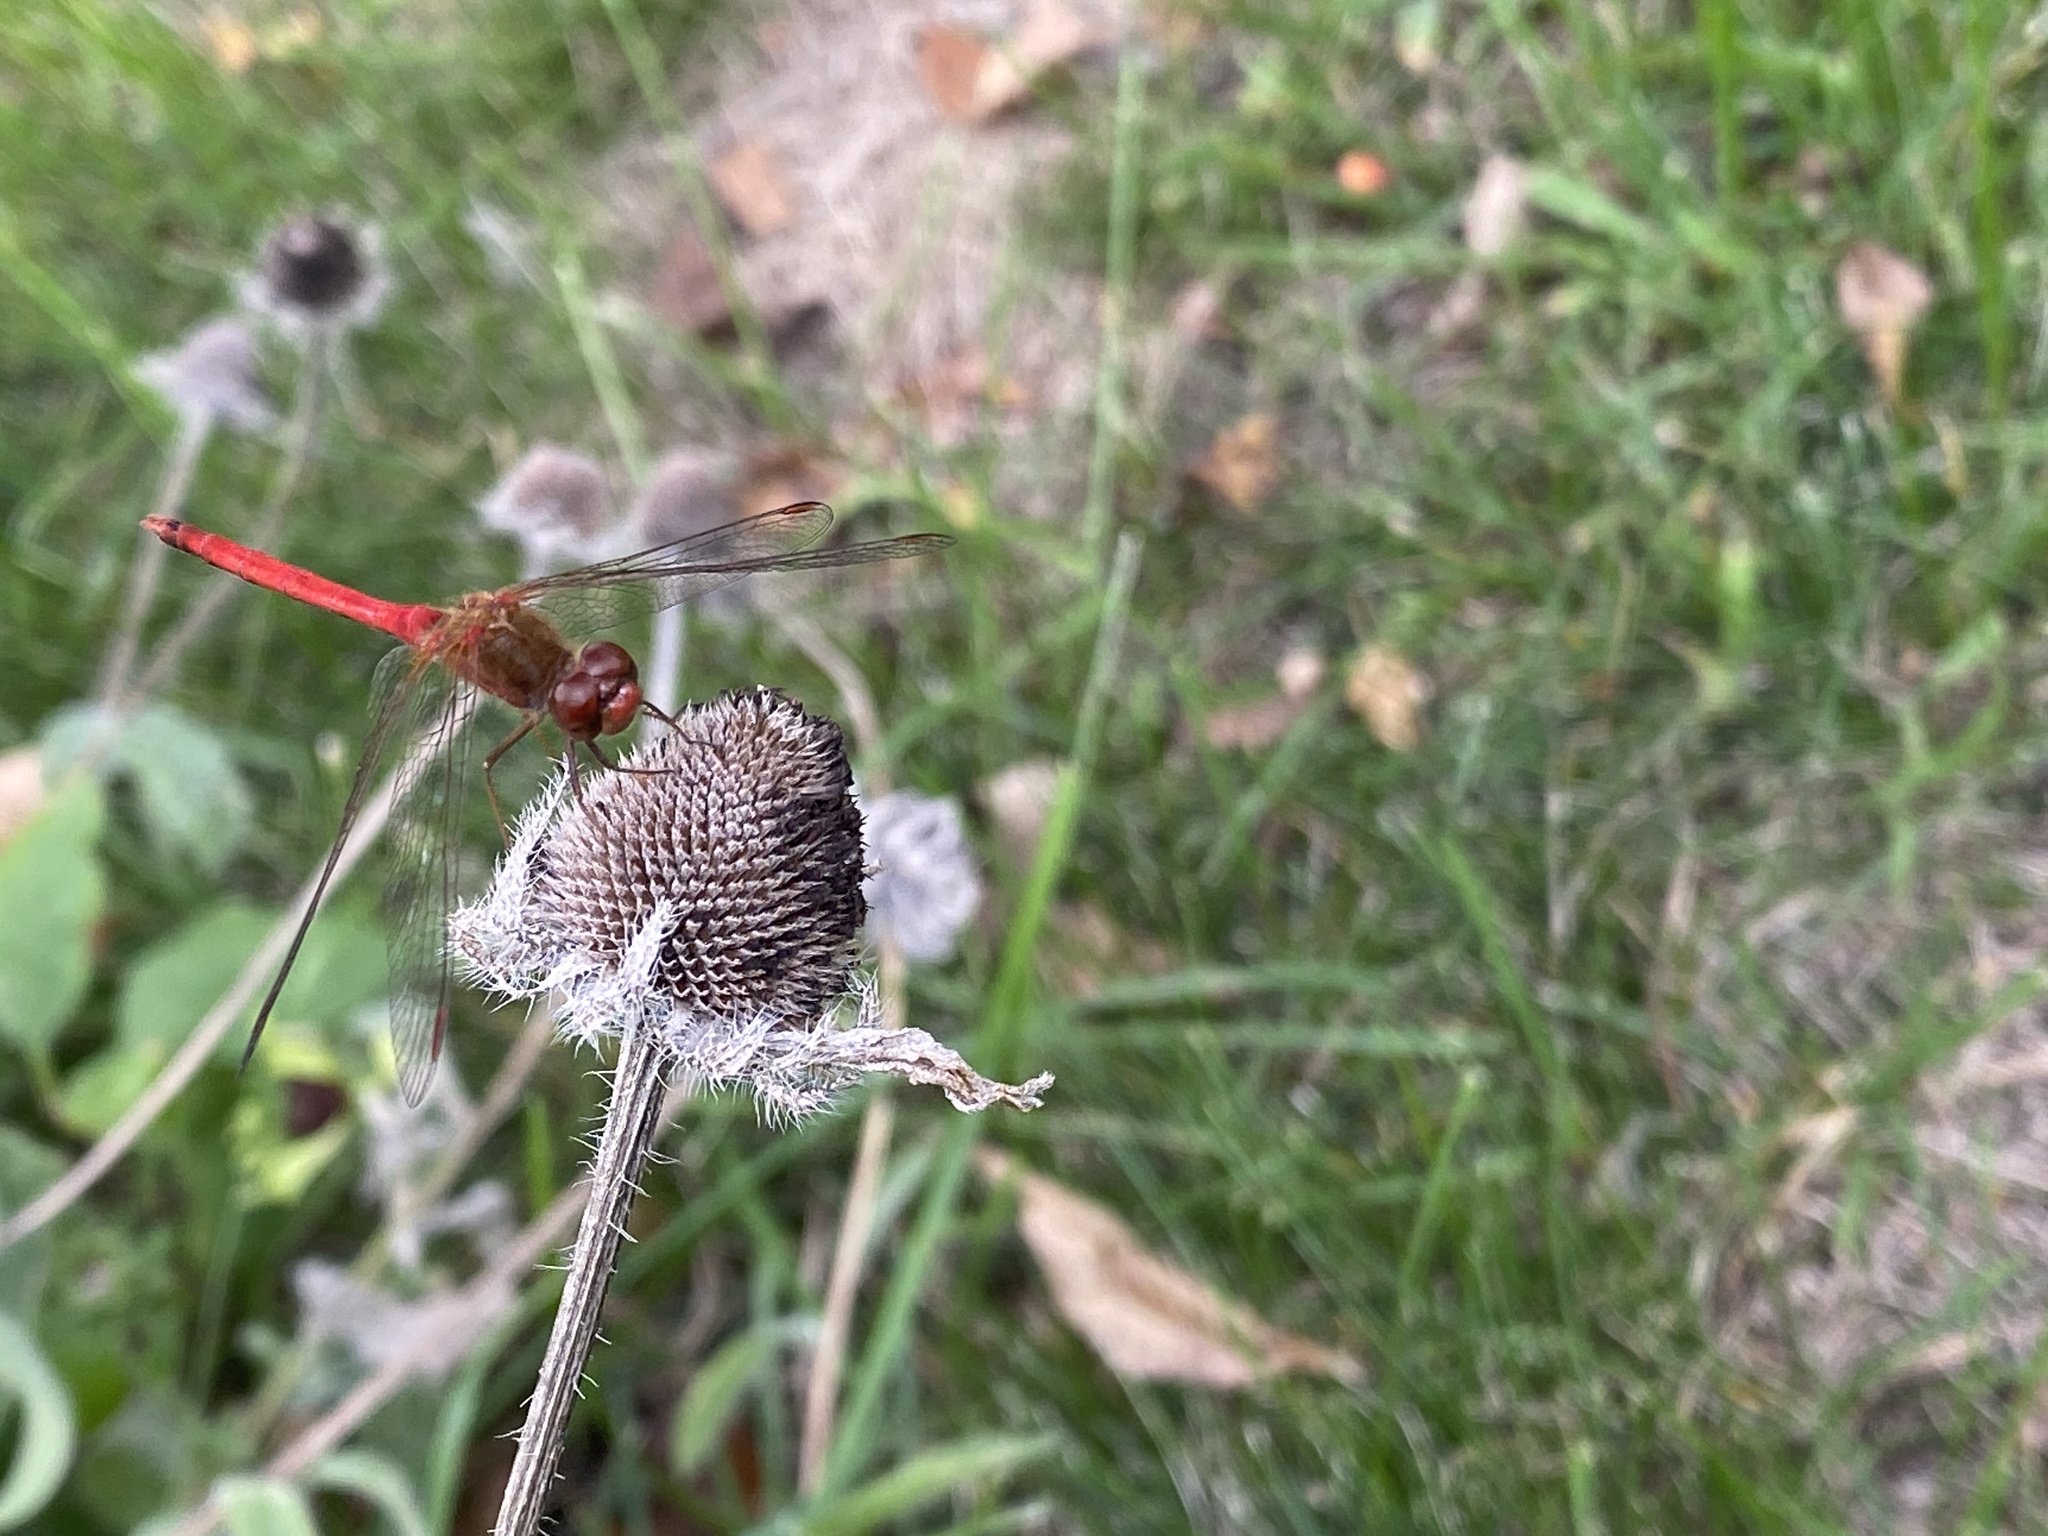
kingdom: Animalia
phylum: Arthropoda
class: Insecta
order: Odonata
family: Libellulidae
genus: Sympetrum
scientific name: Sympetrum vicinum
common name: Autumn meadowhawk
